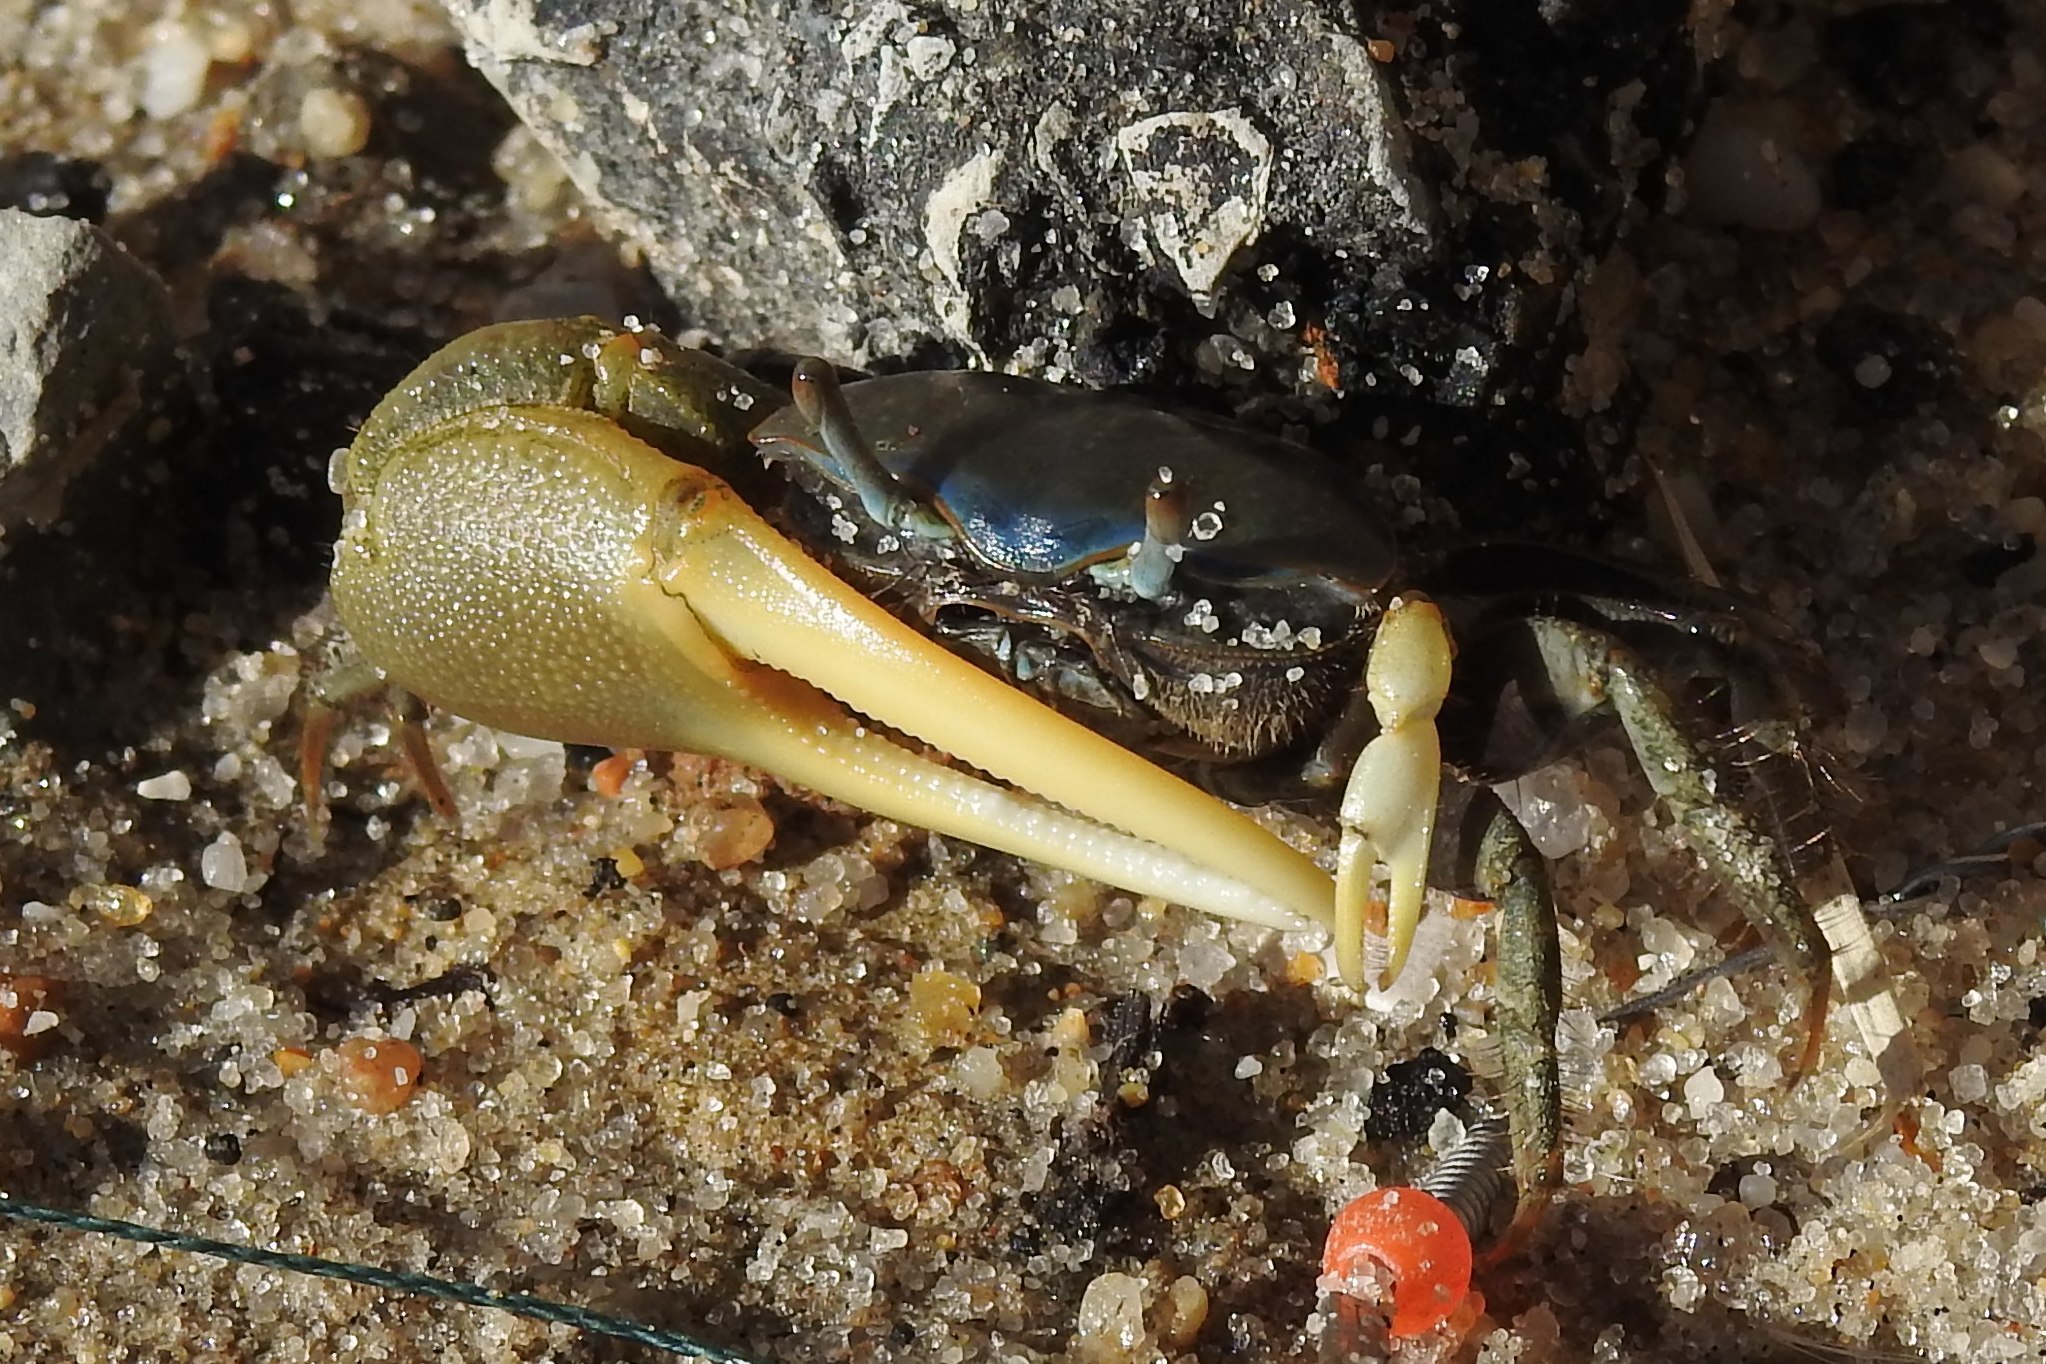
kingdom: Animalia
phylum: Arthropoda
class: Malacostraca
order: Decapoda
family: Ocypodidae
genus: Minuca
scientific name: Minuca pugnax
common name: Mud fiddler crab
